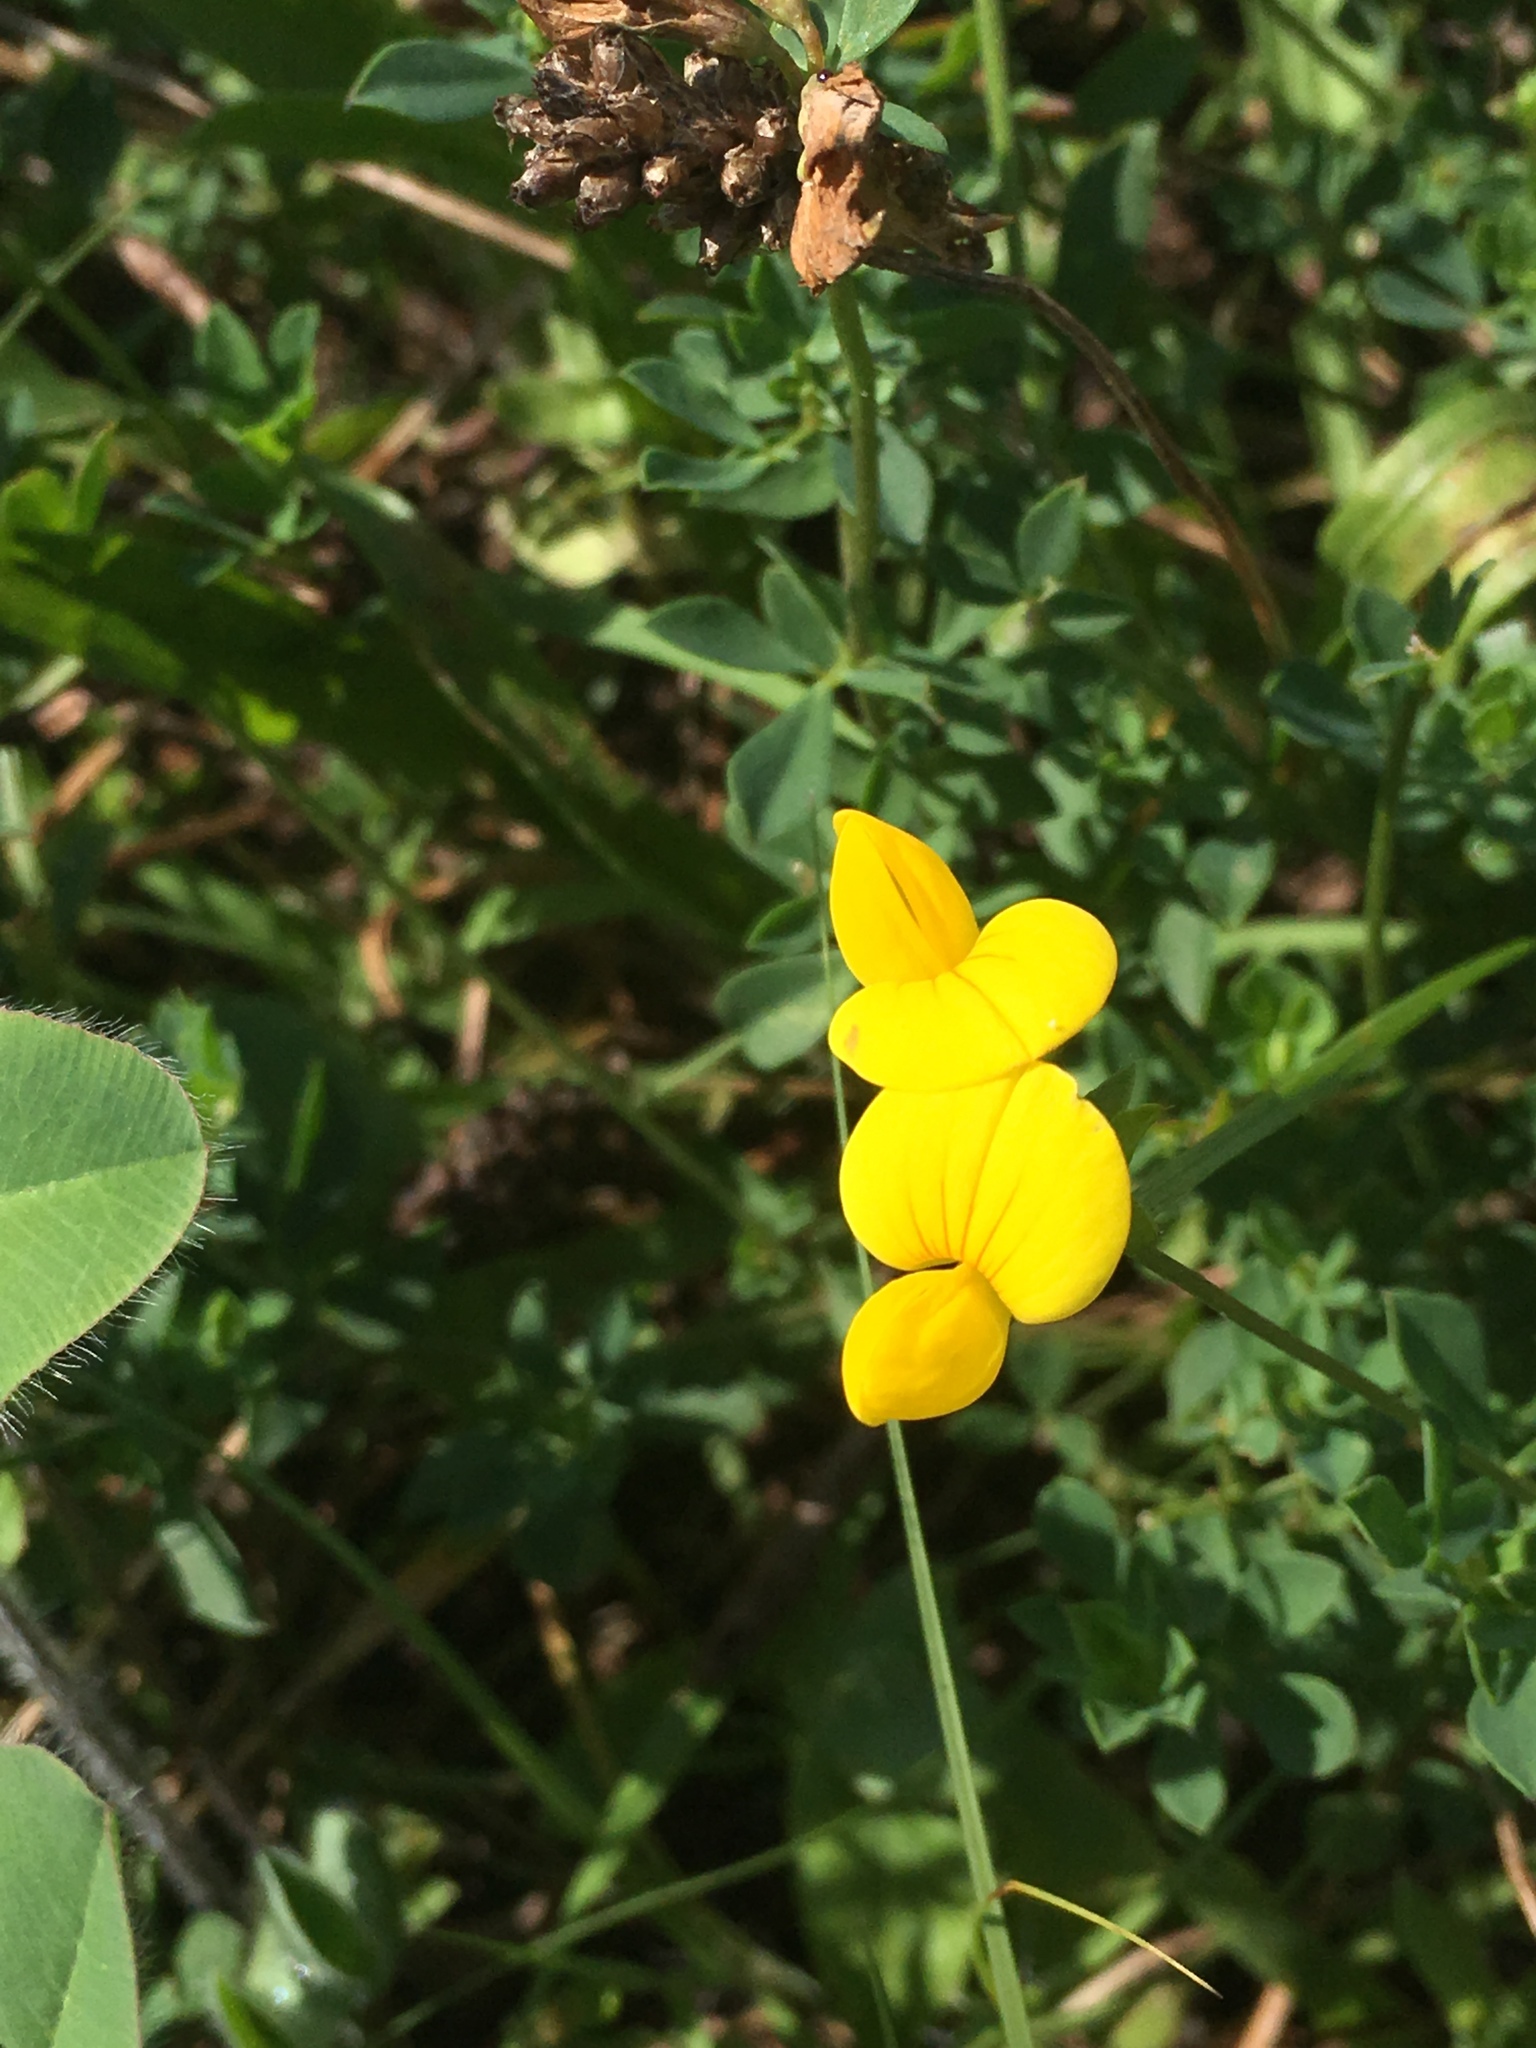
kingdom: Plantae
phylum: Tracheophyta
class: Magnoliopsida
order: Fabales
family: Fabaceae
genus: Lotus
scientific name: Lotus corniculatus
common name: Common bird's-foot-trefoil
